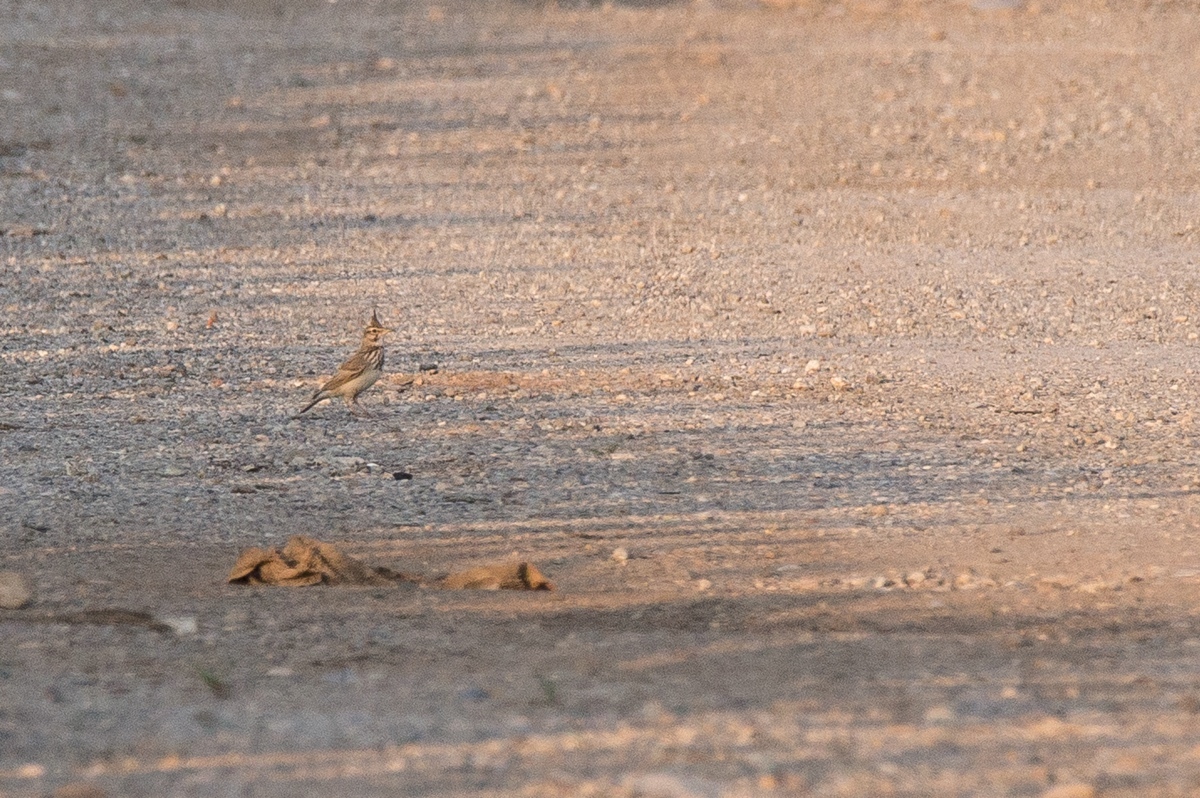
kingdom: Animalia
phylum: Chordata
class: Aves
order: Passeriformes
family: Alaudidae
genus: Galerida
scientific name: Galerida cristata
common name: Crested lark
